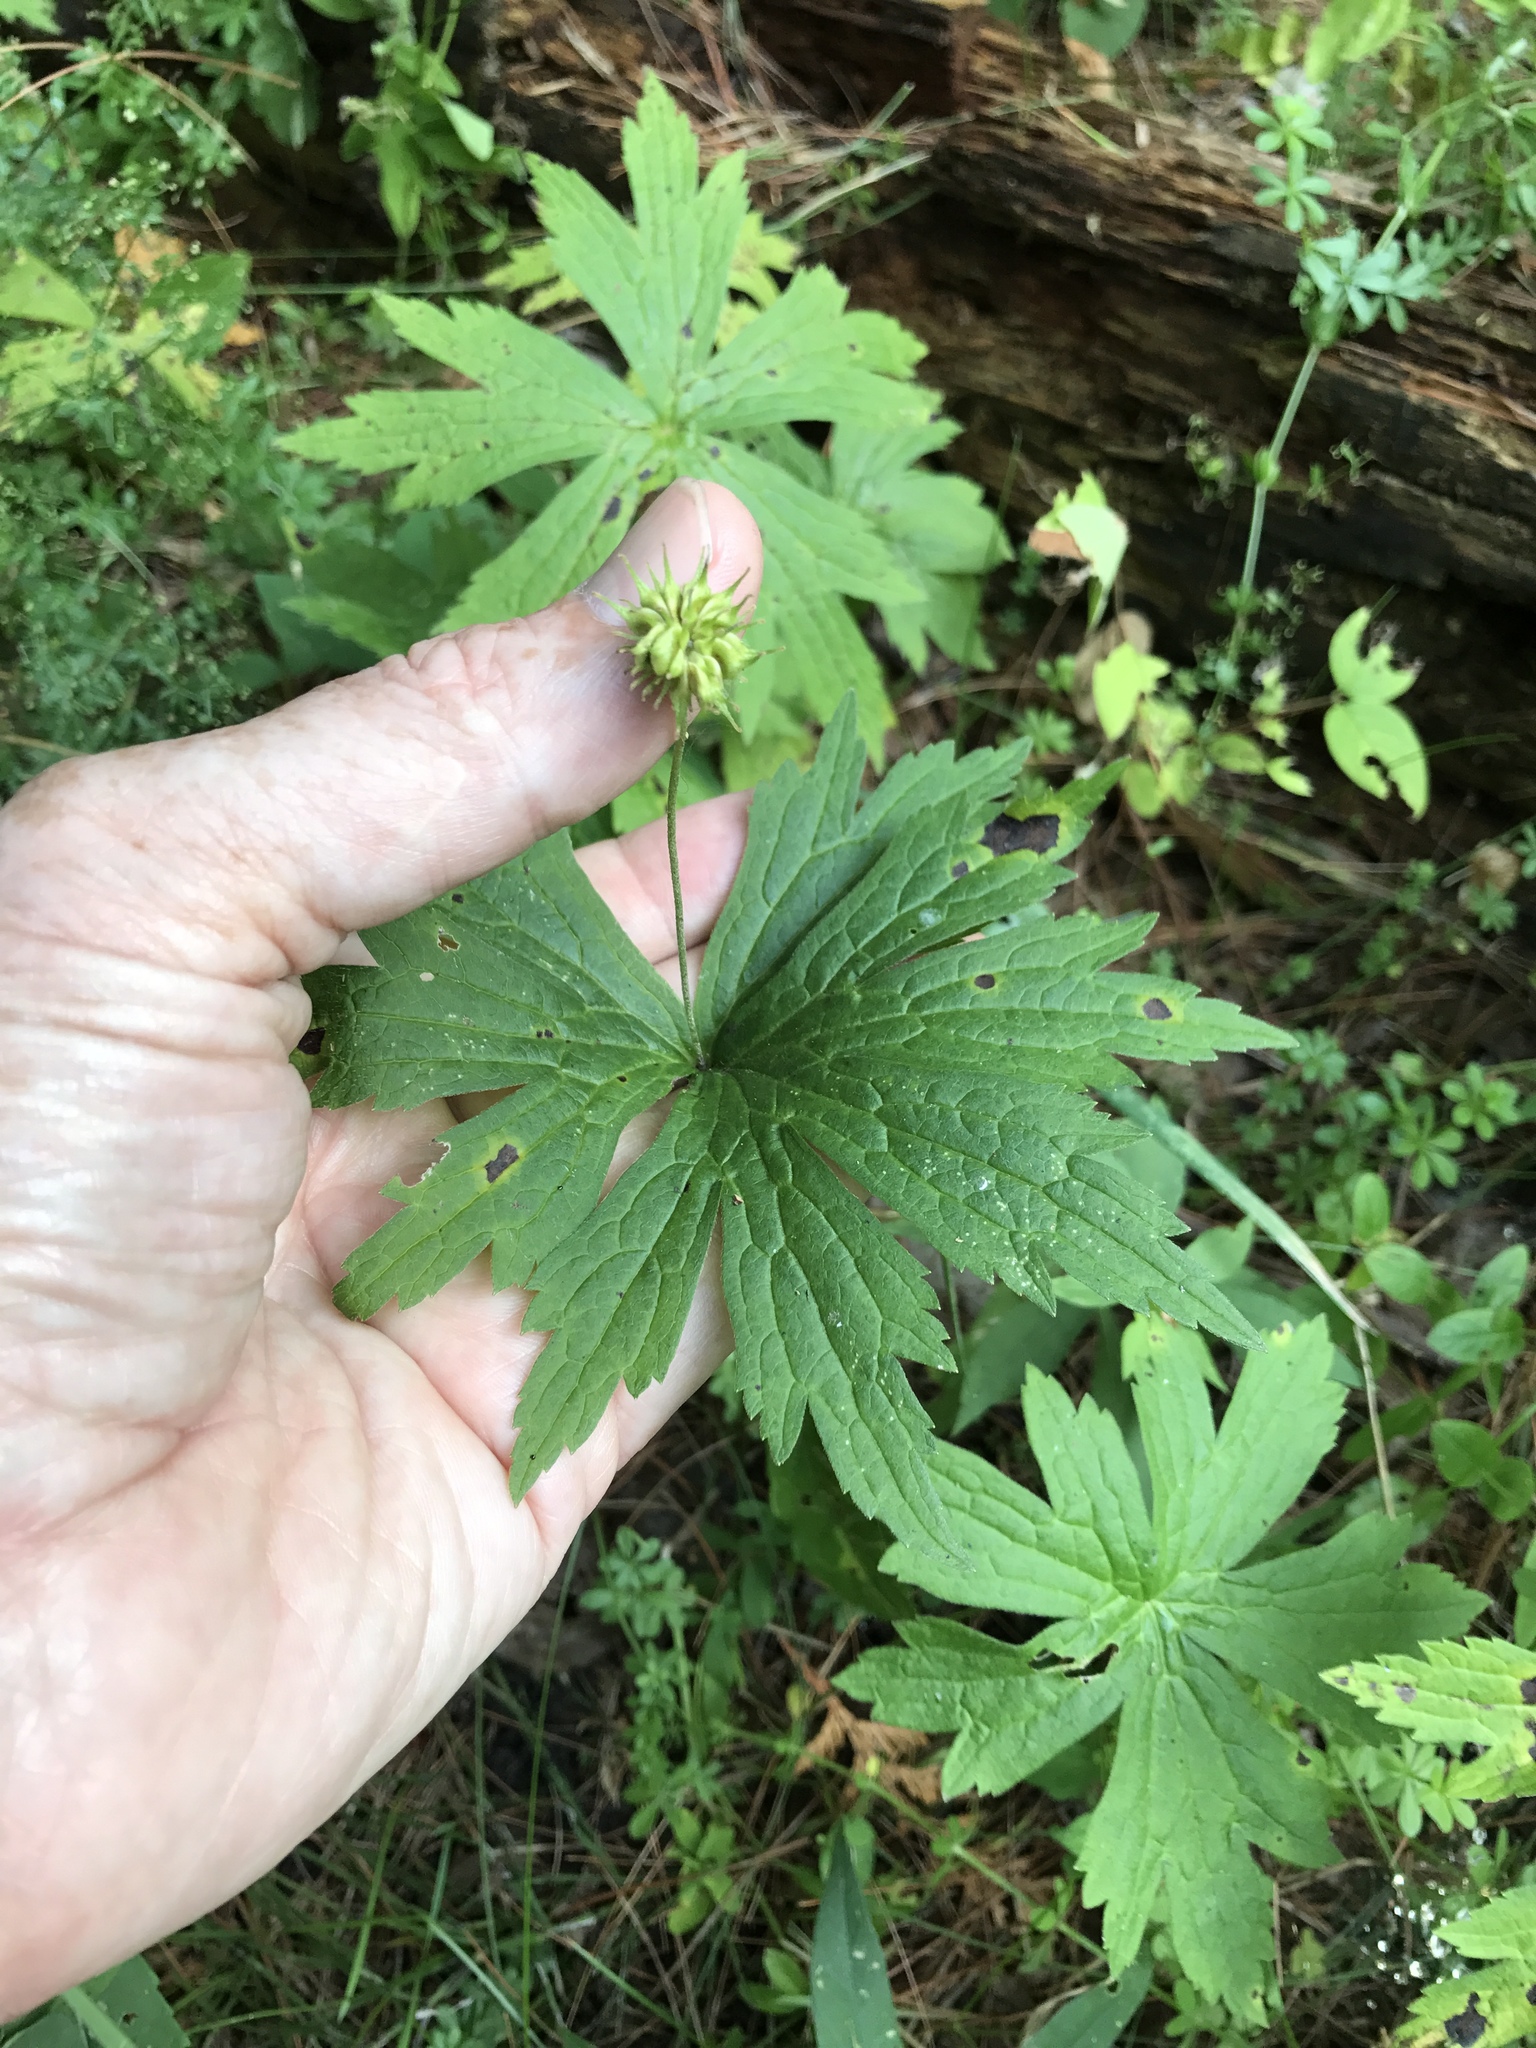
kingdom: Plantae
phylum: Tracheophyta
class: Magnoliopsida
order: Ranunculales
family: Ranunculaceae
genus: Anemonastrum
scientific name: Anemonastrum canadense
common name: Canada anemone
